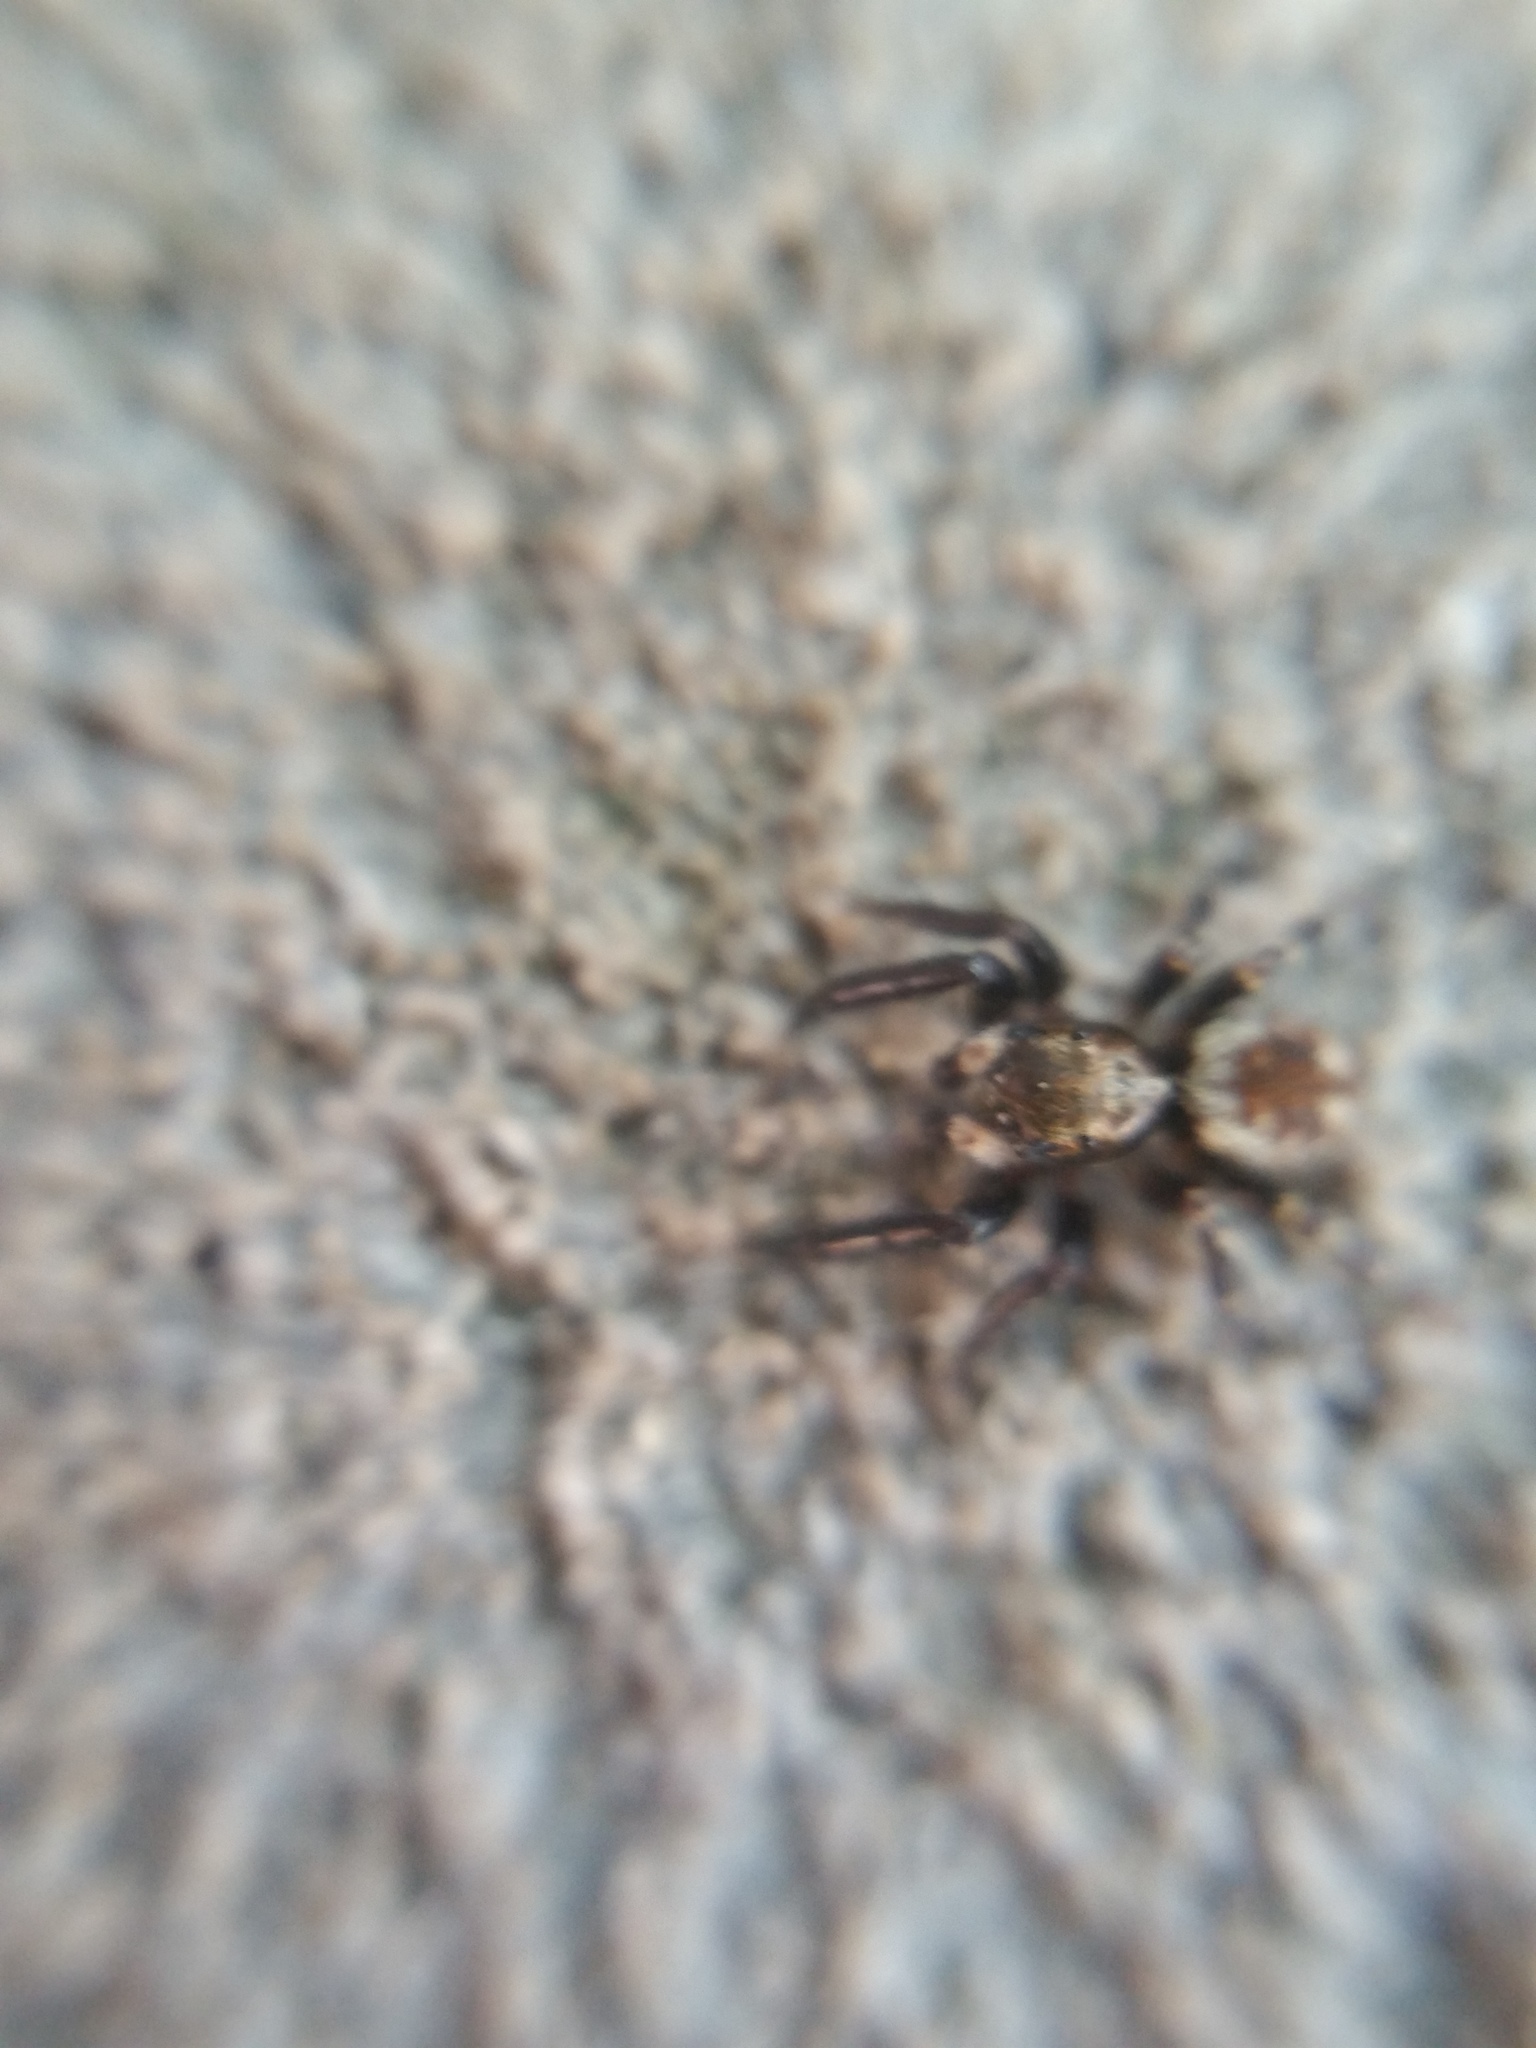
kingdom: Animalia
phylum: Arthropoda
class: Arachnida
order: Araneae
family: Salticidae
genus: Pseudeuophrys
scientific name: Pseudeuophrys erratica
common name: Jumping spider
